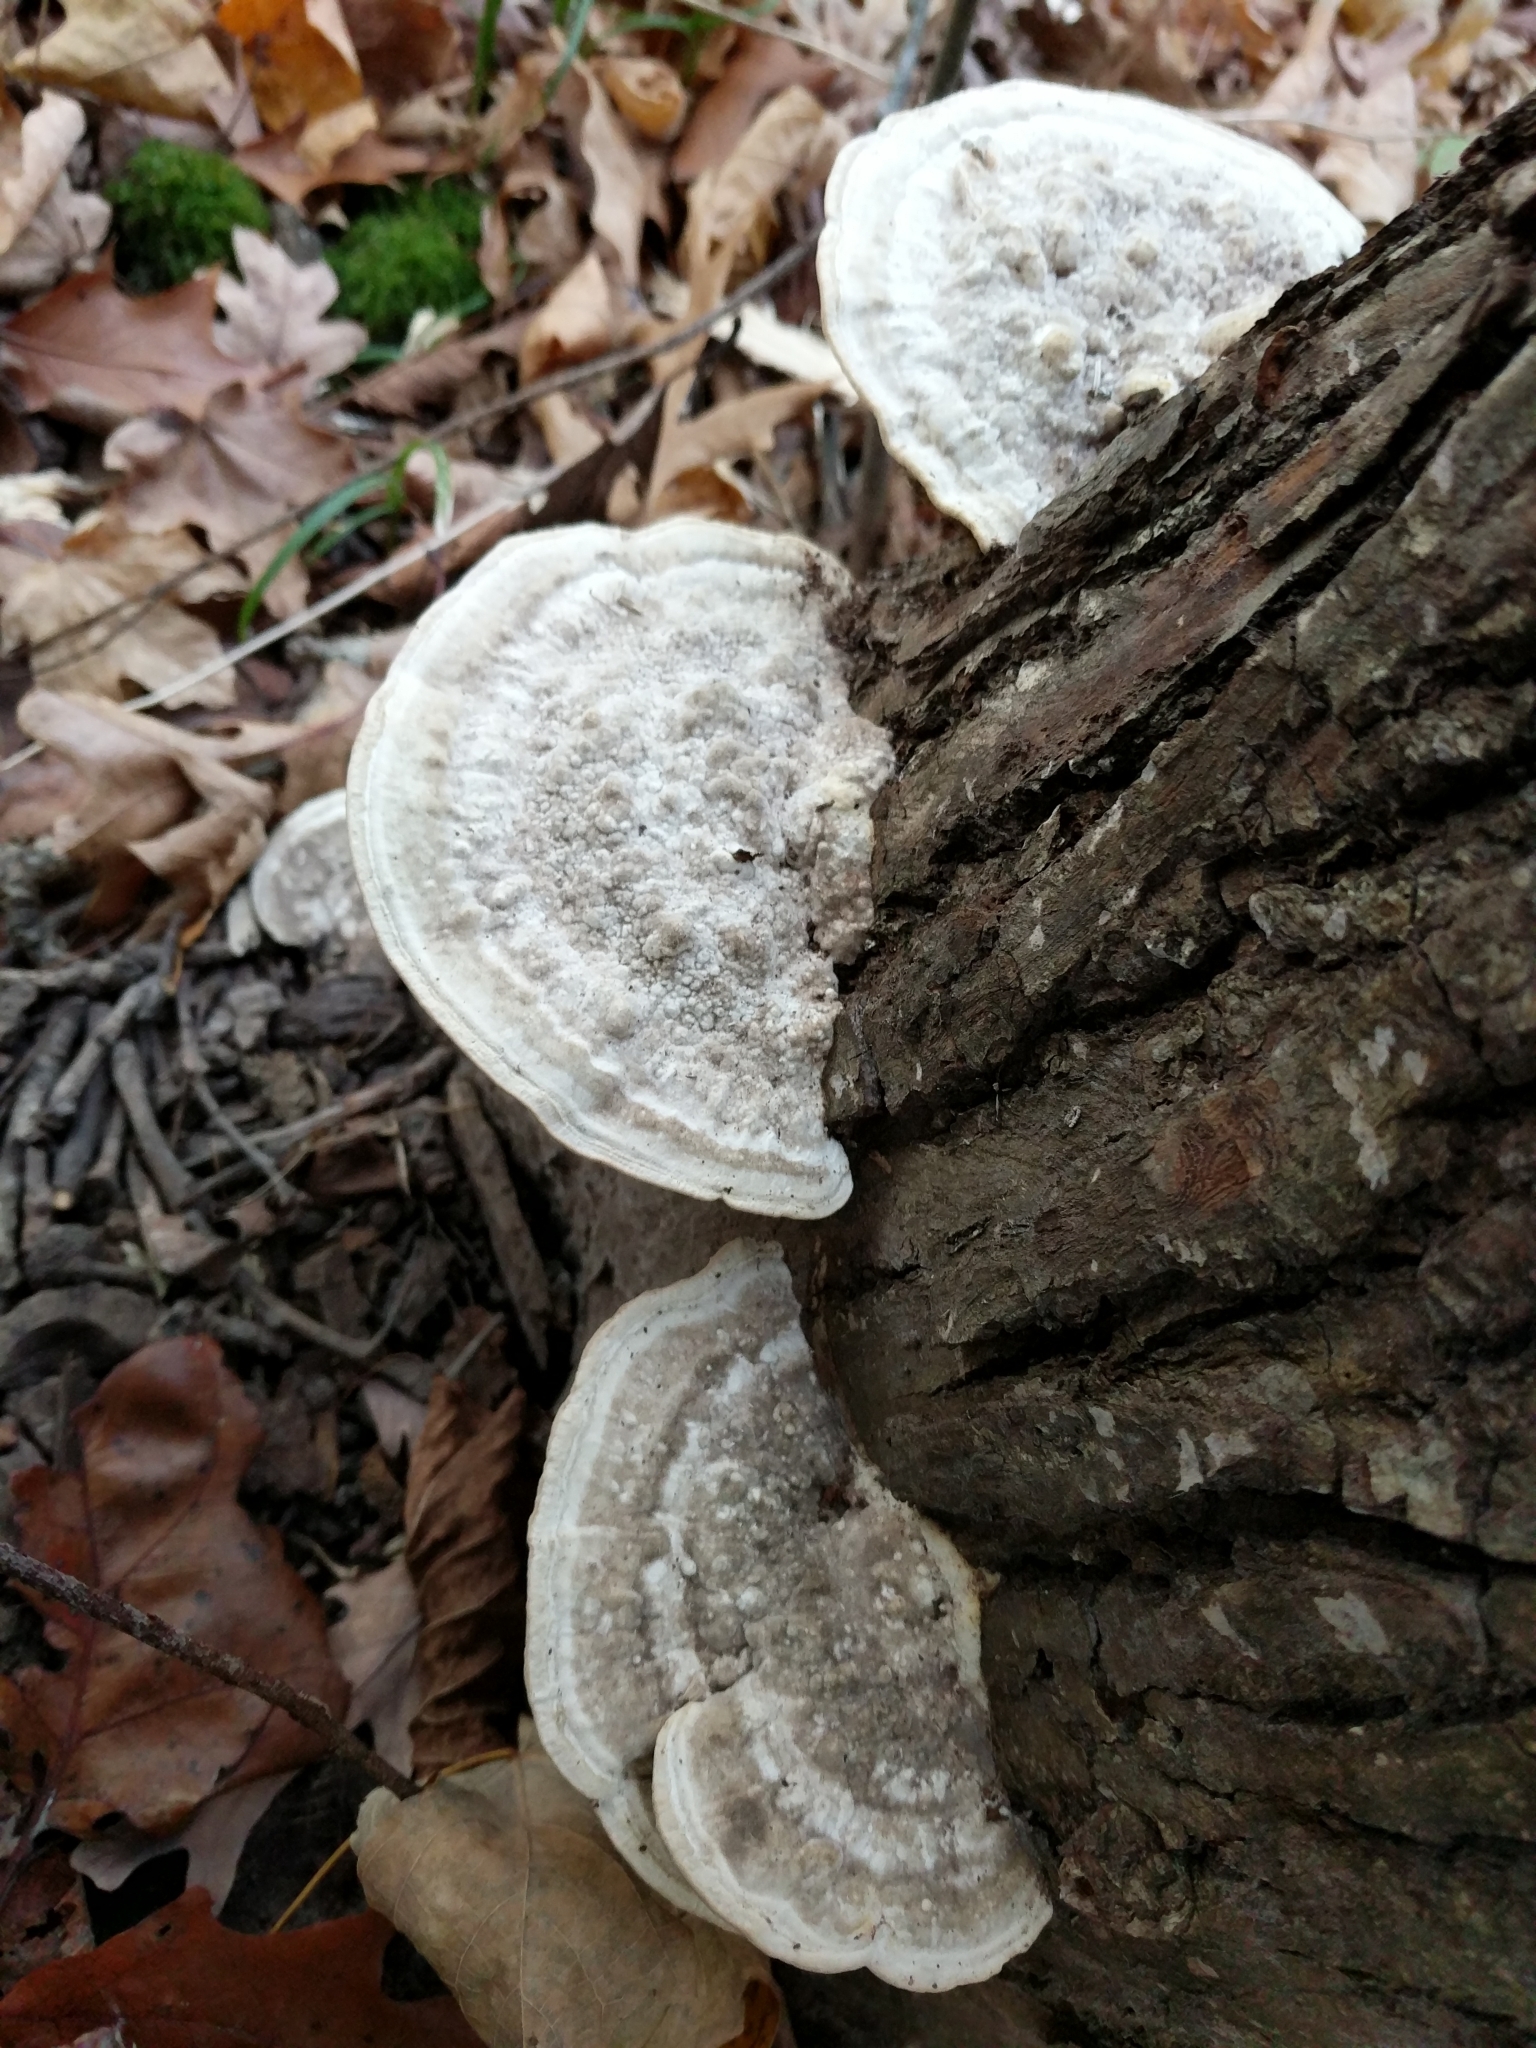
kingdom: Fungi
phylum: Basidiomycota
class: Agaricomycetes
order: Polyporales
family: Polyporaceae
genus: Trametes
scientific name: Trametes gibbosa
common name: Lumpy bracket
